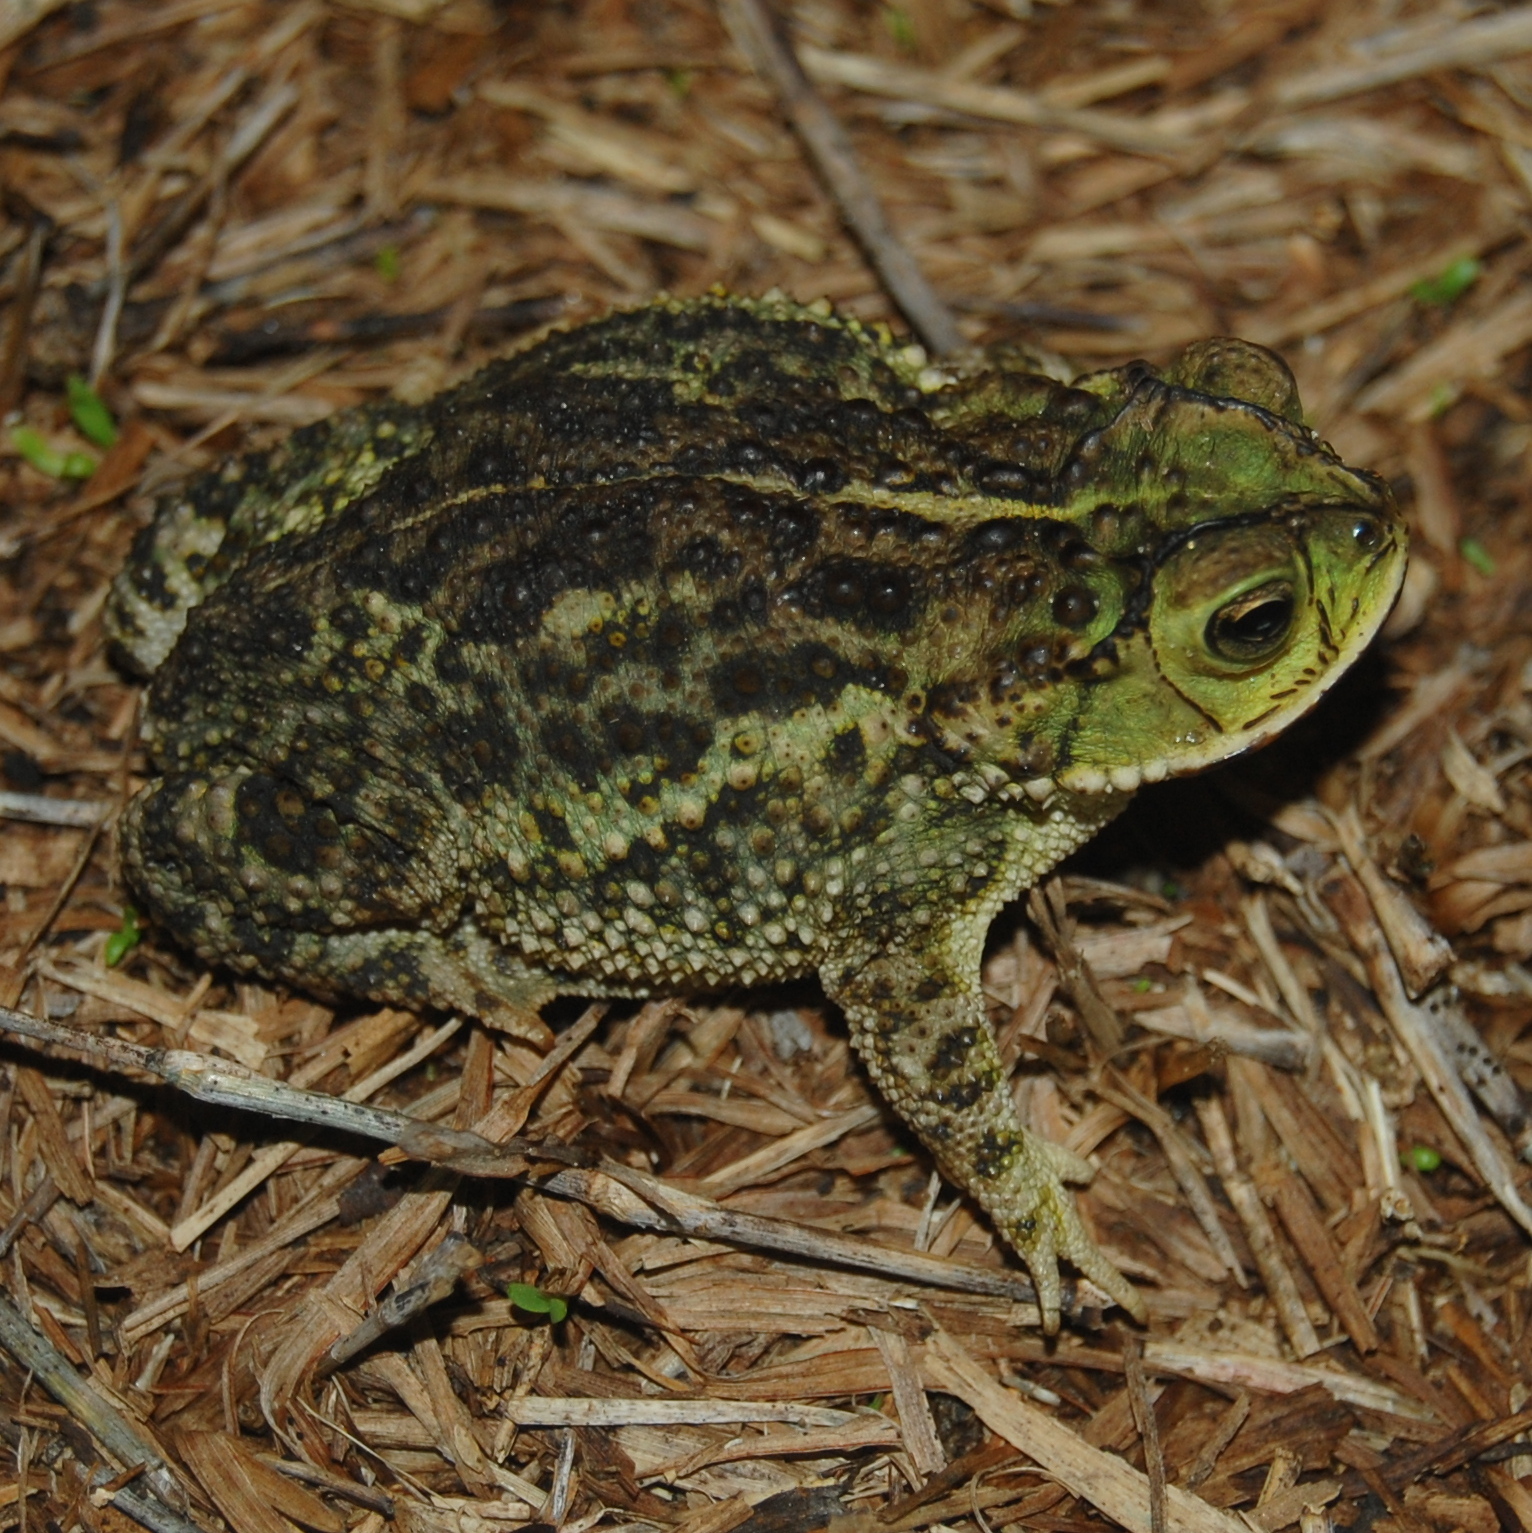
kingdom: Animalia
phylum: Chordata
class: Amphibia
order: Anura
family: Bufonidae
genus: Rhinella
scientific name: Rhinella dorbignyi
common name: D´orbigny’s toad
